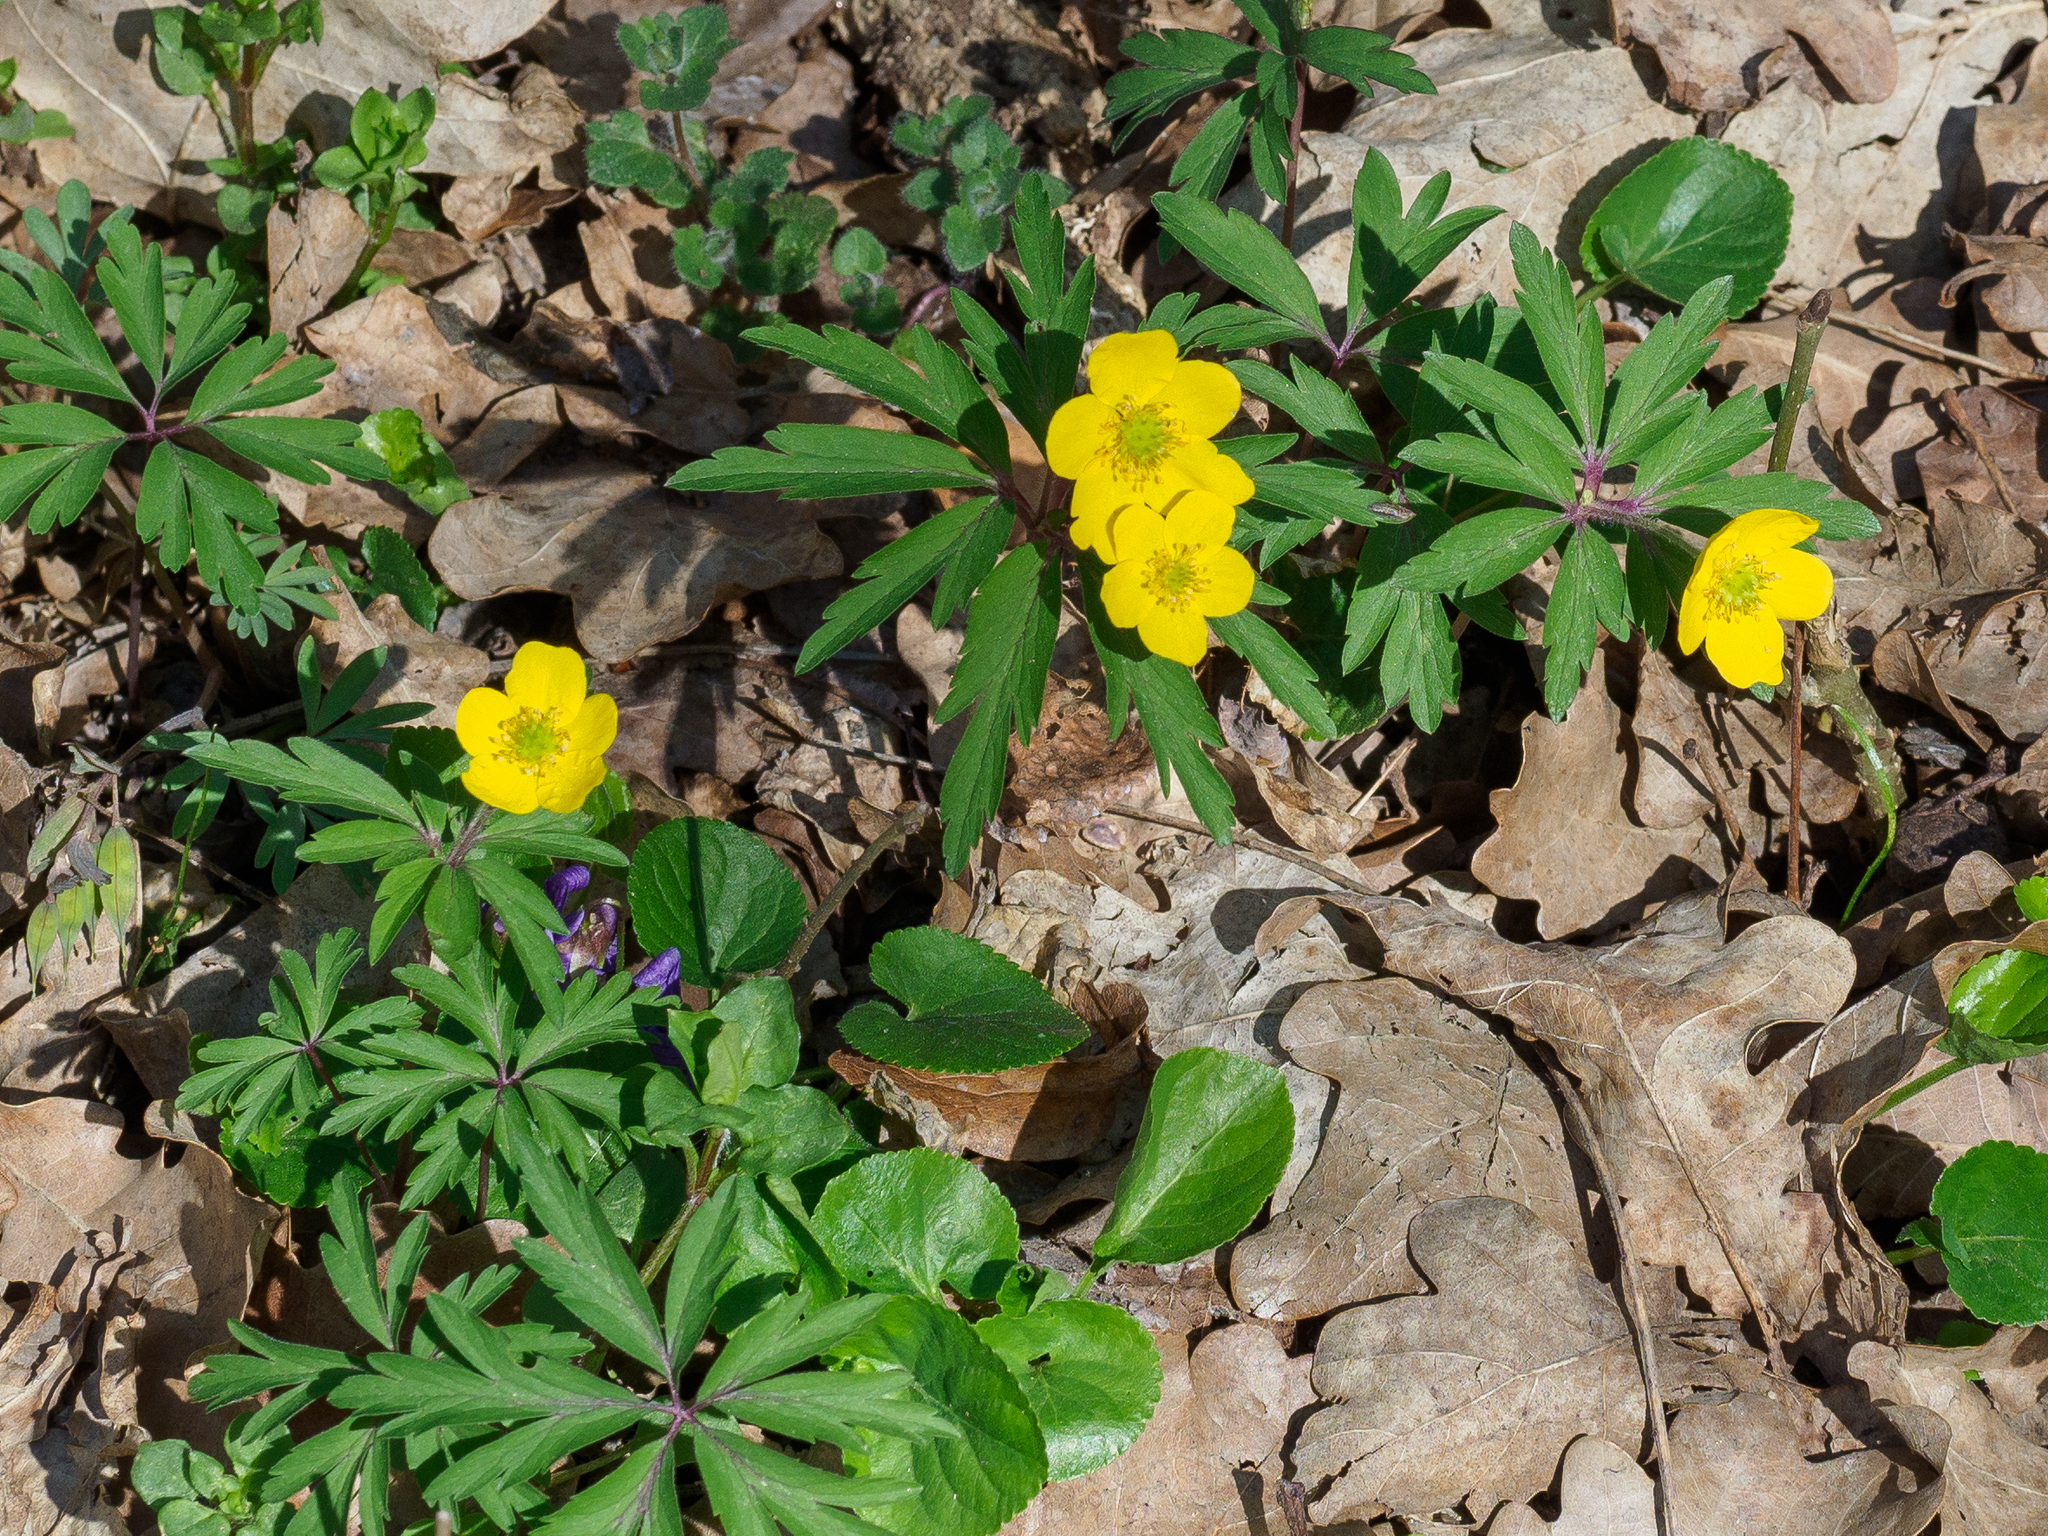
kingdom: Plantae
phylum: Tracheophyta
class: Magnoliopsida
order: Ranunculales
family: Ranunculaceae
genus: Anemone
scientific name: Anemone ranunculoides
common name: Yellow anemone
